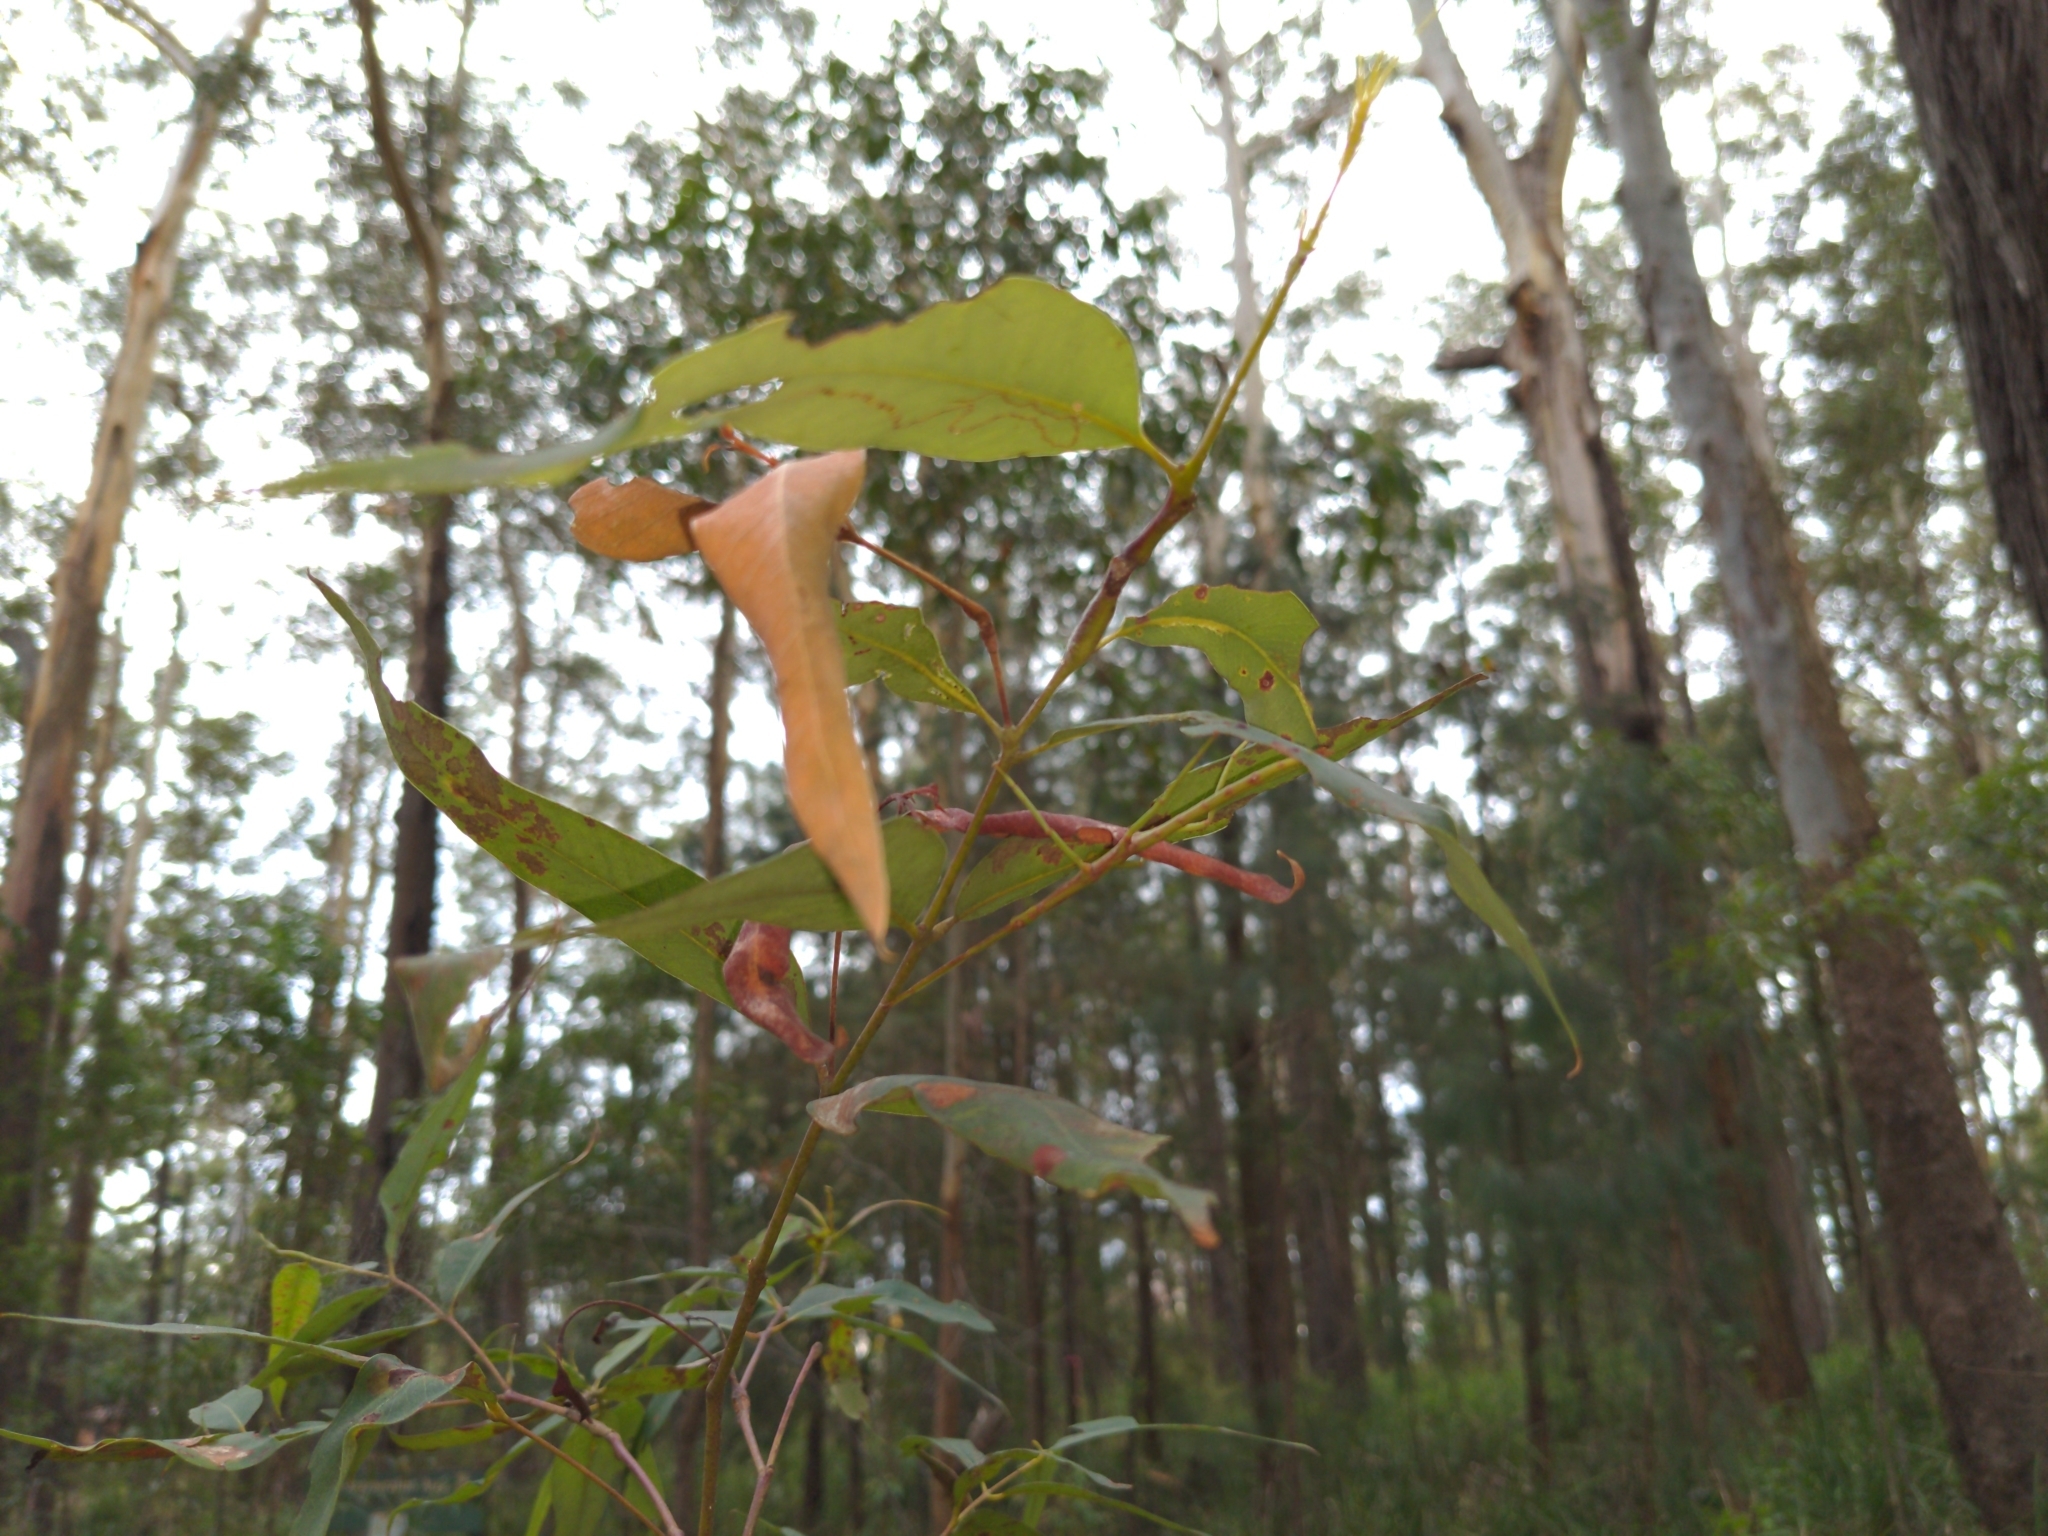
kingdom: Animalia
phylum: Arthropoda
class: Insecta
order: Phasmida
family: Phasmatidae
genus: Acrophylla
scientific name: Acrophylla titan
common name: Titan stick insect
